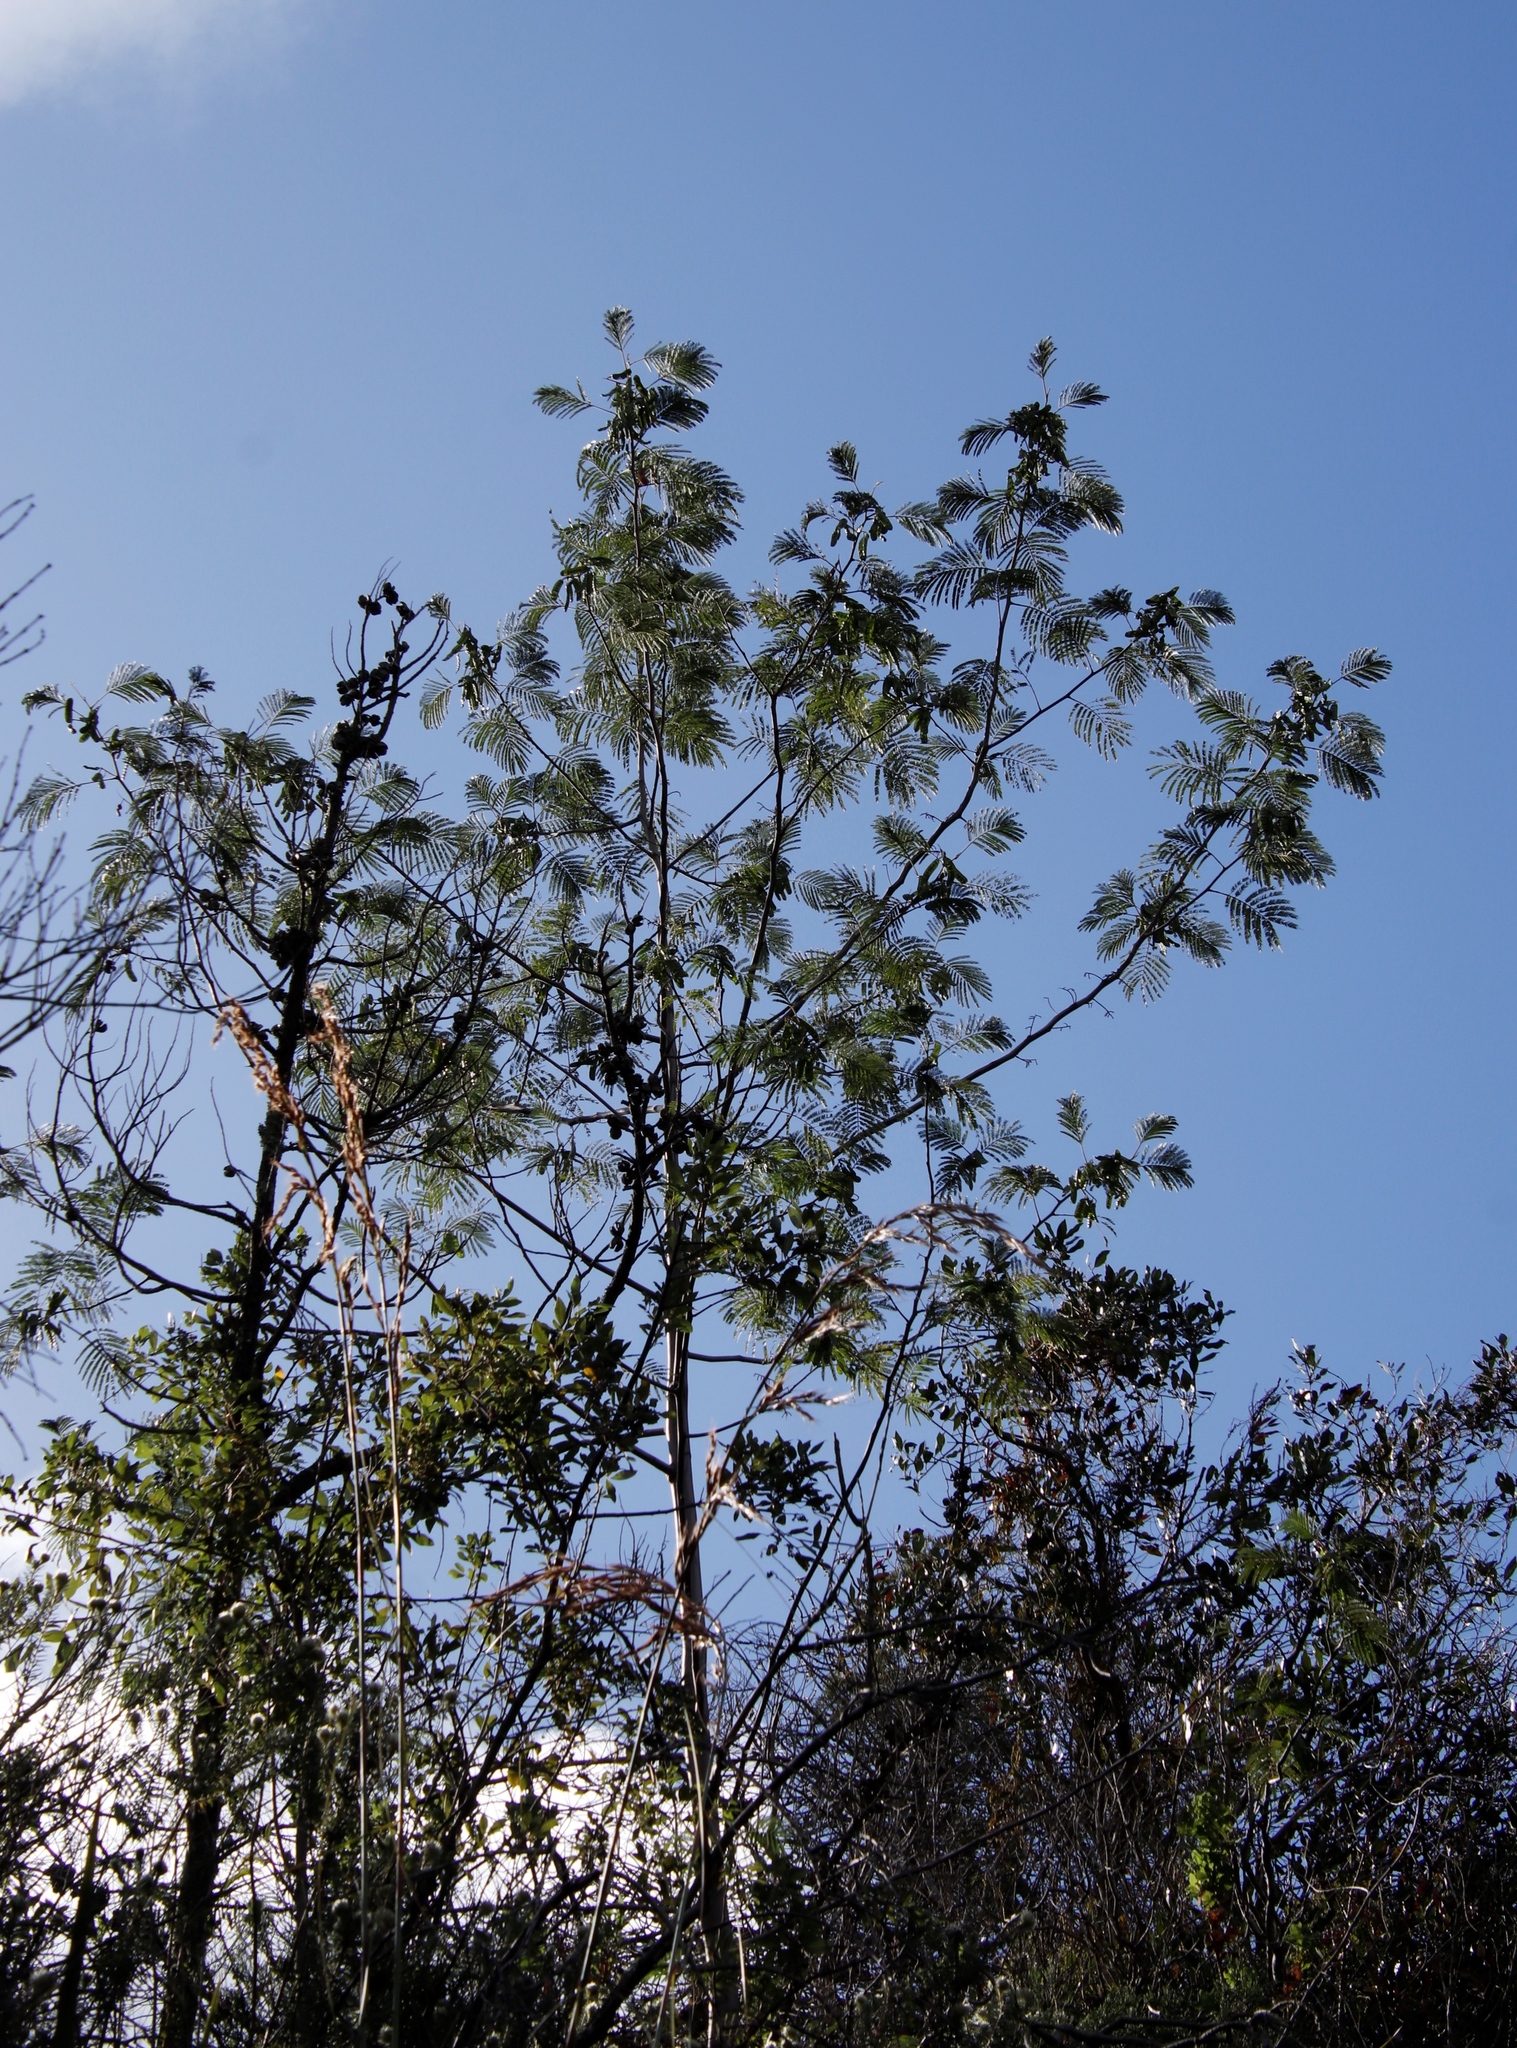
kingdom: Plantae
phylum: Tracheophyta
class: Magnoliopsida
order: Fabales
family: Fabaceae
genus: Paraserianthes
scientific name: Paraserianthes lophantha
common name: Plume albizia
